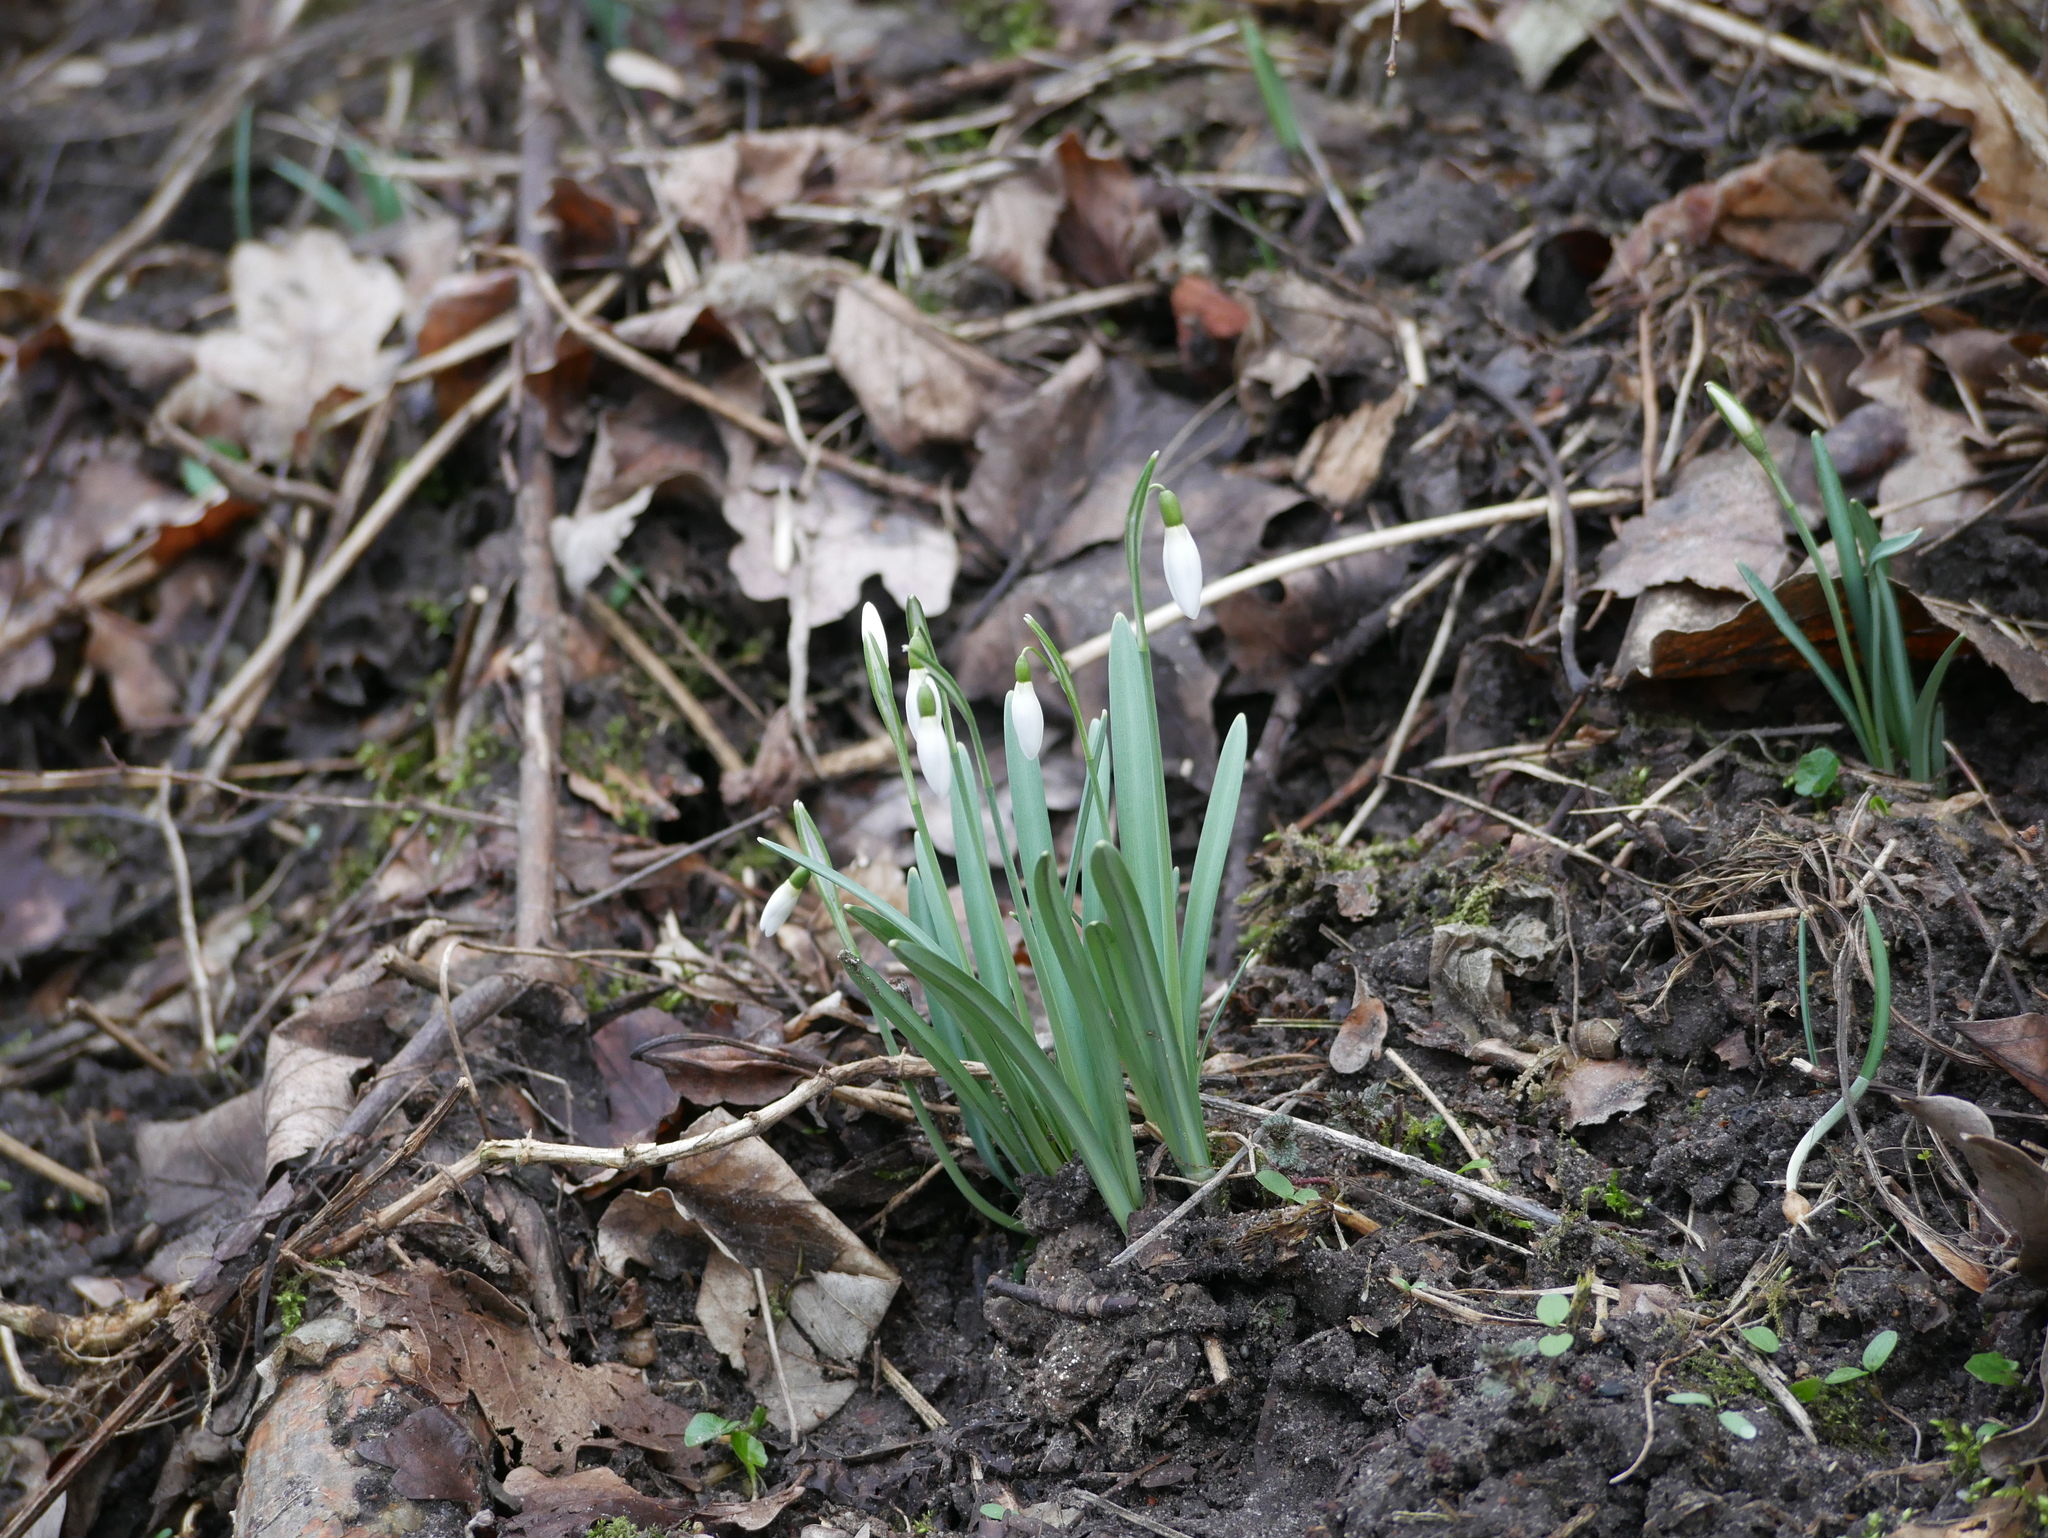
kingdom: Plantae
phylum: Tracheophyta
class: Liliopsida
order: Asparagales
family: Amaryllidaceae
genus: Galanthus
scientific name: Galanthus nivalis
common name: Snowdrop
